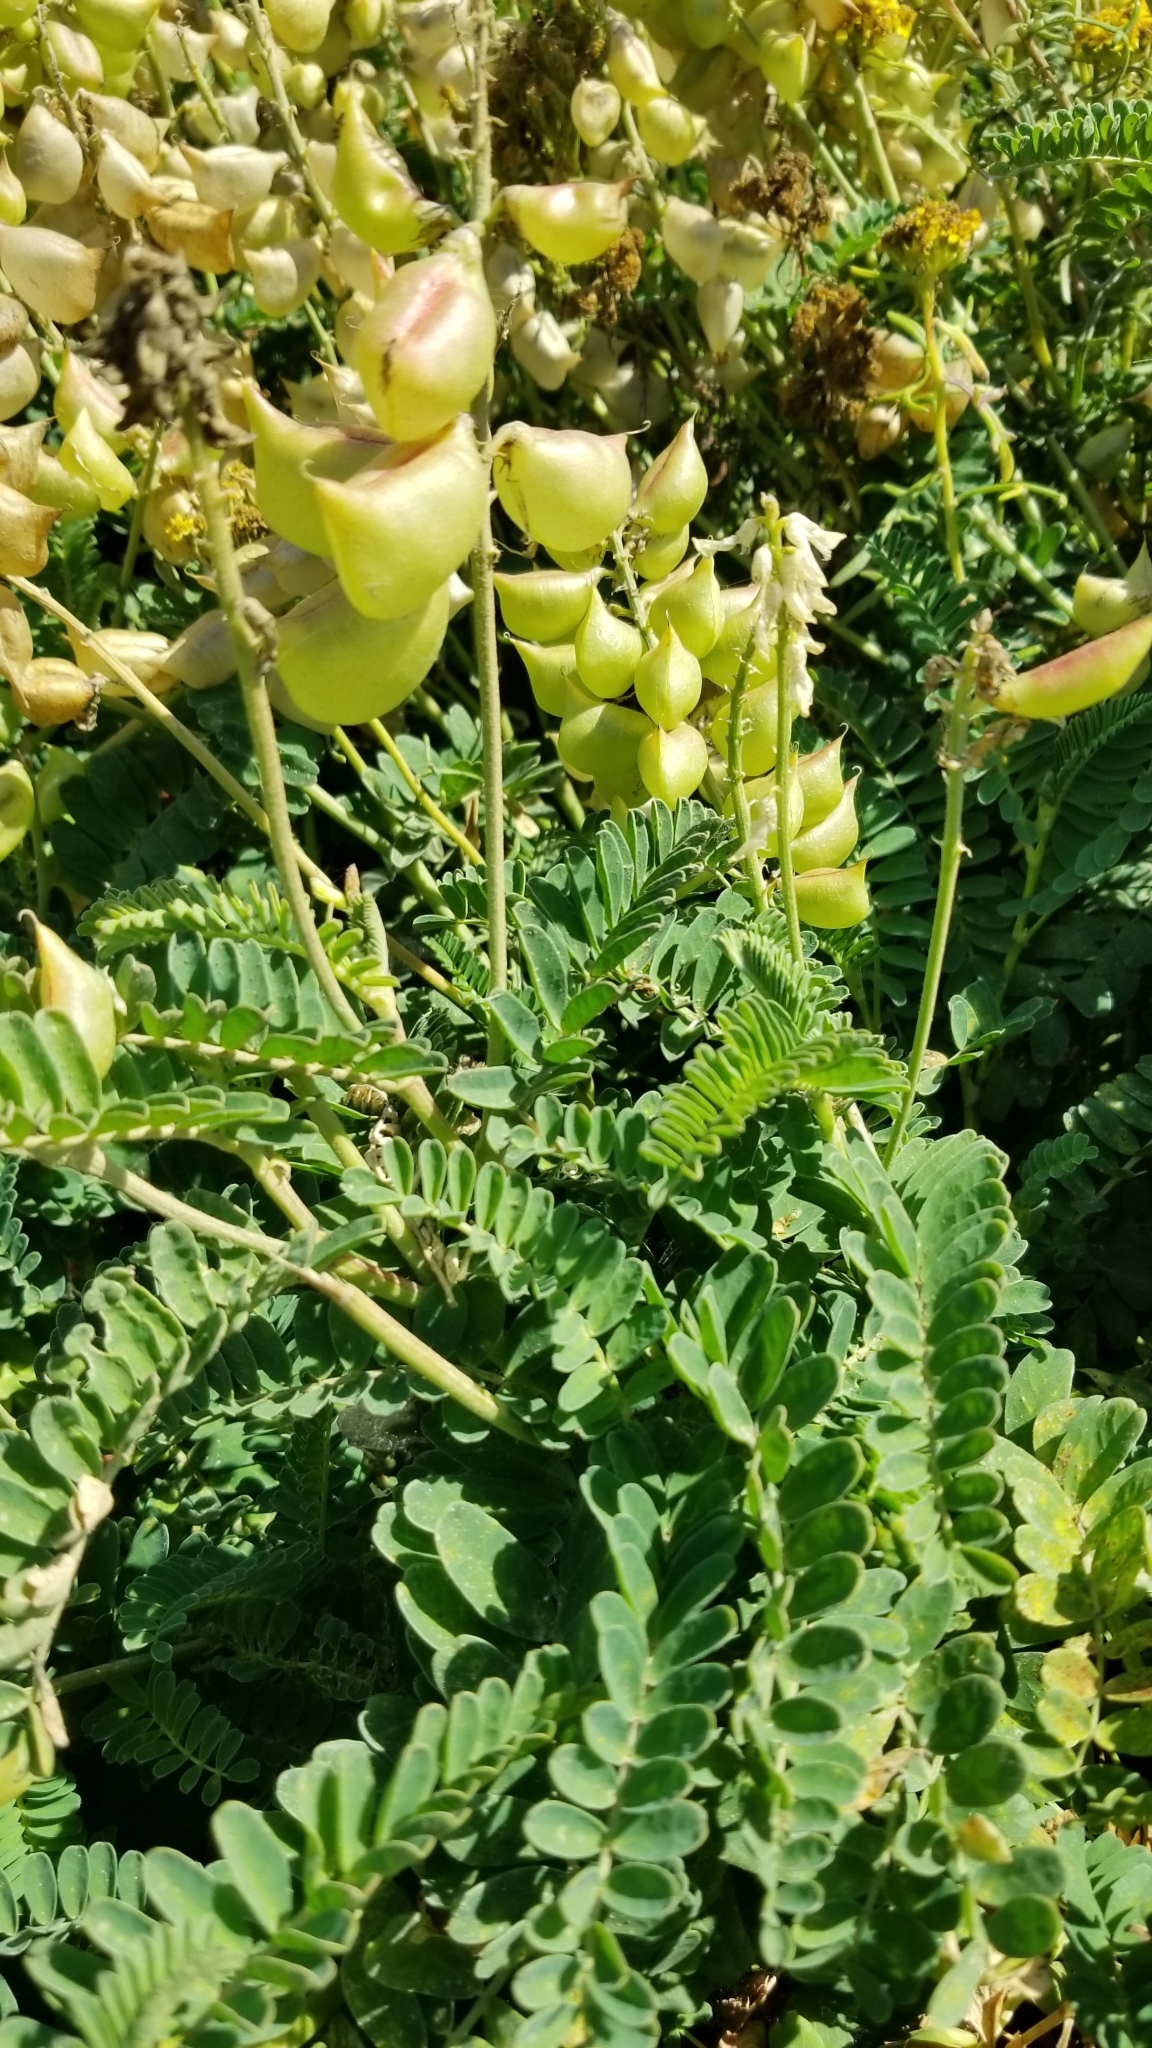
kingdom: Plantae
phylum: Tracheophyta
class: Magnoliopsida
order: Fabales
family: Fabaceae
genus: Astragalus
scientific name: Astragalus nuttallii
